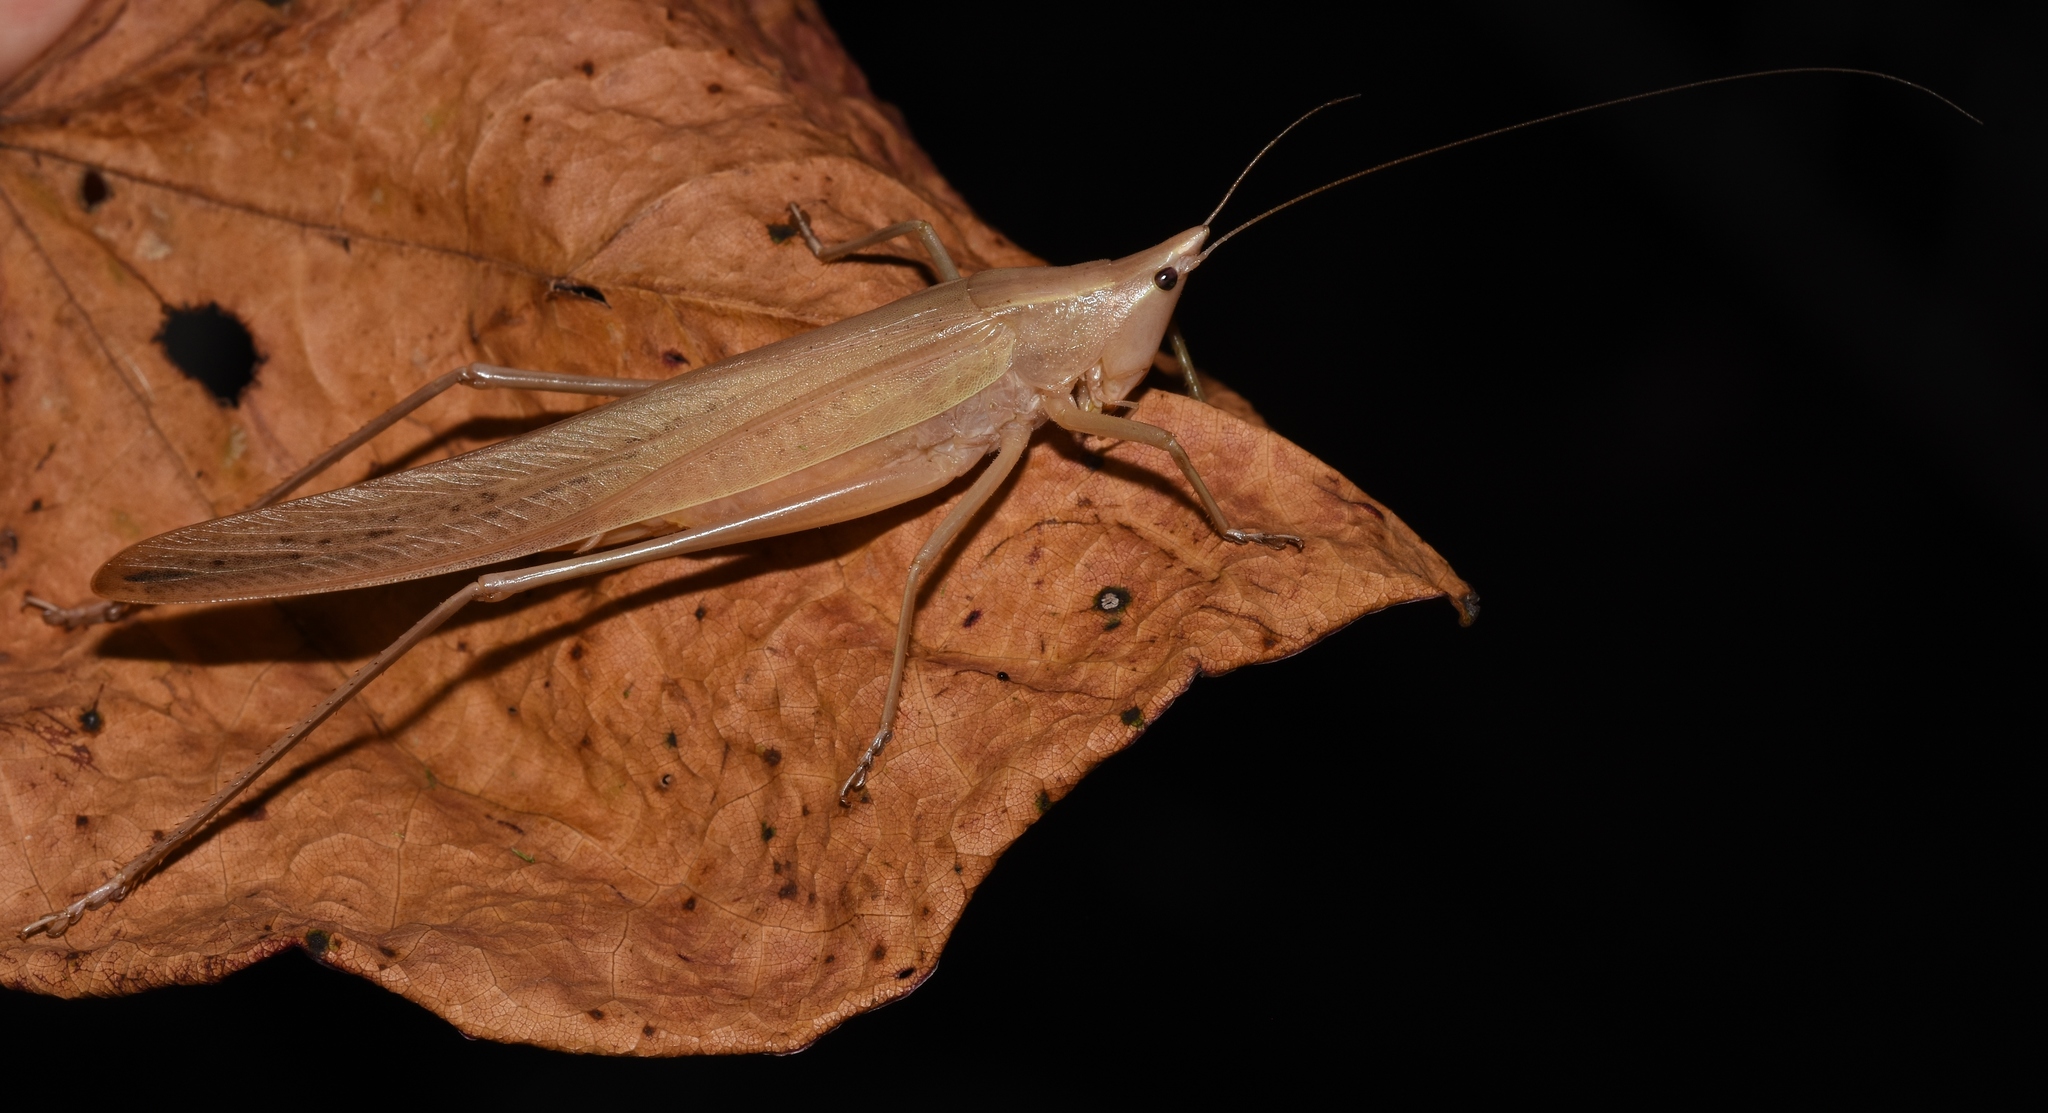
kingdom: Animalia
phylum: Arthropoda
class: Insecta
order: Orthoptera
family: Tettigoniidae
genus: Neoconocephalus
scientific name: Neoconocephalus bivocatus
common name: False robust conehead
